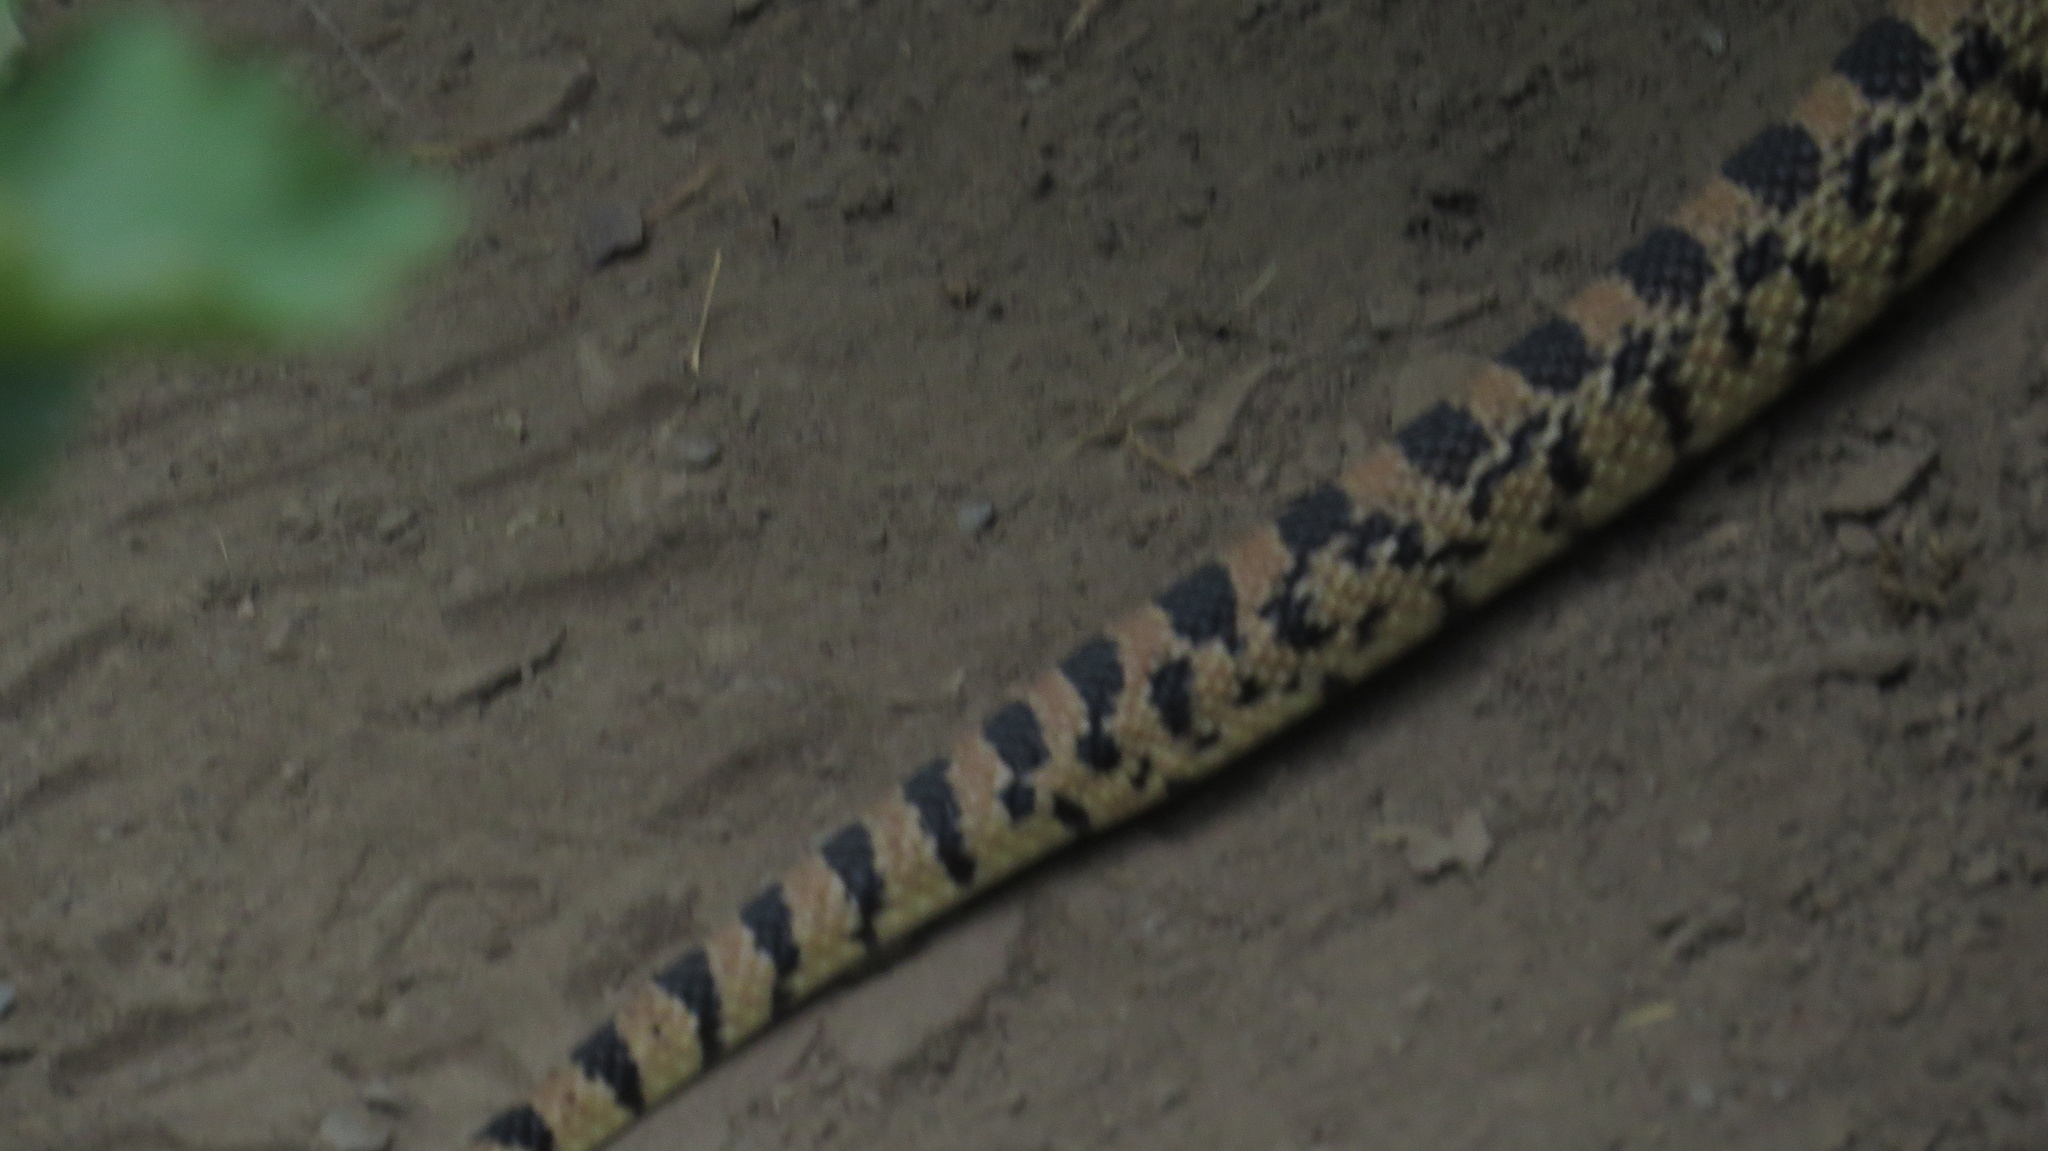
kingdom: Animalia
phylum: Chordata
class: Squamata
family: Colubridae
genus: Pituophis
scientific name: Pituophis catenifer
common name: Gopher snake
